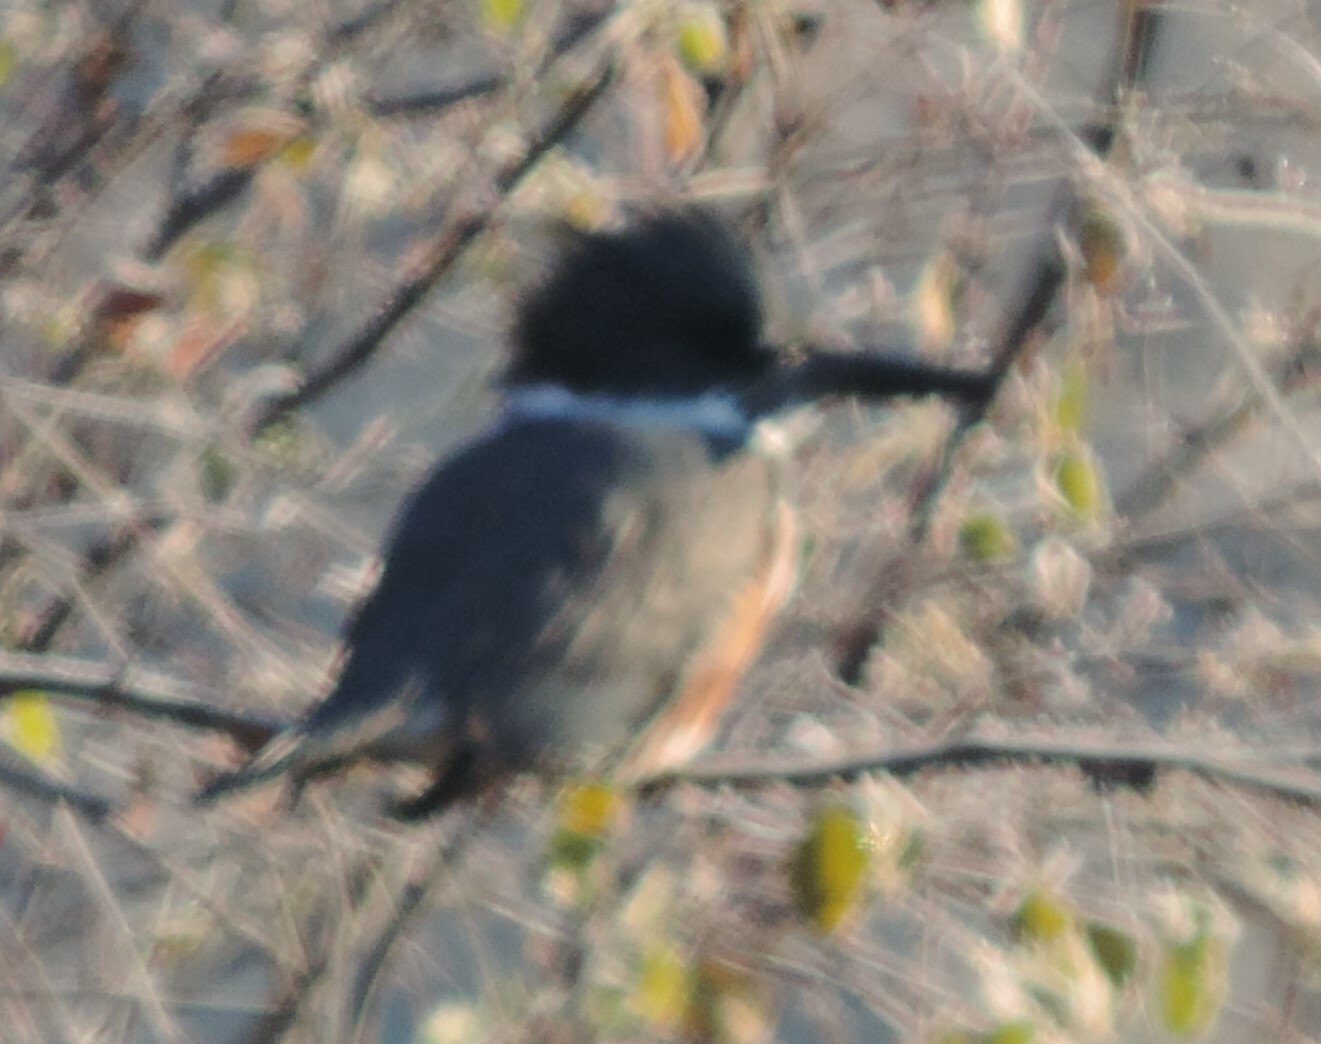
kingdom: Animalia
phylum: Chordata
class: Aves
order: Coraciiformes
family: Alcedinidae
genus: Megaceryle
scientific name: Megaceryle alcyon
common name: Belted kingfisher
